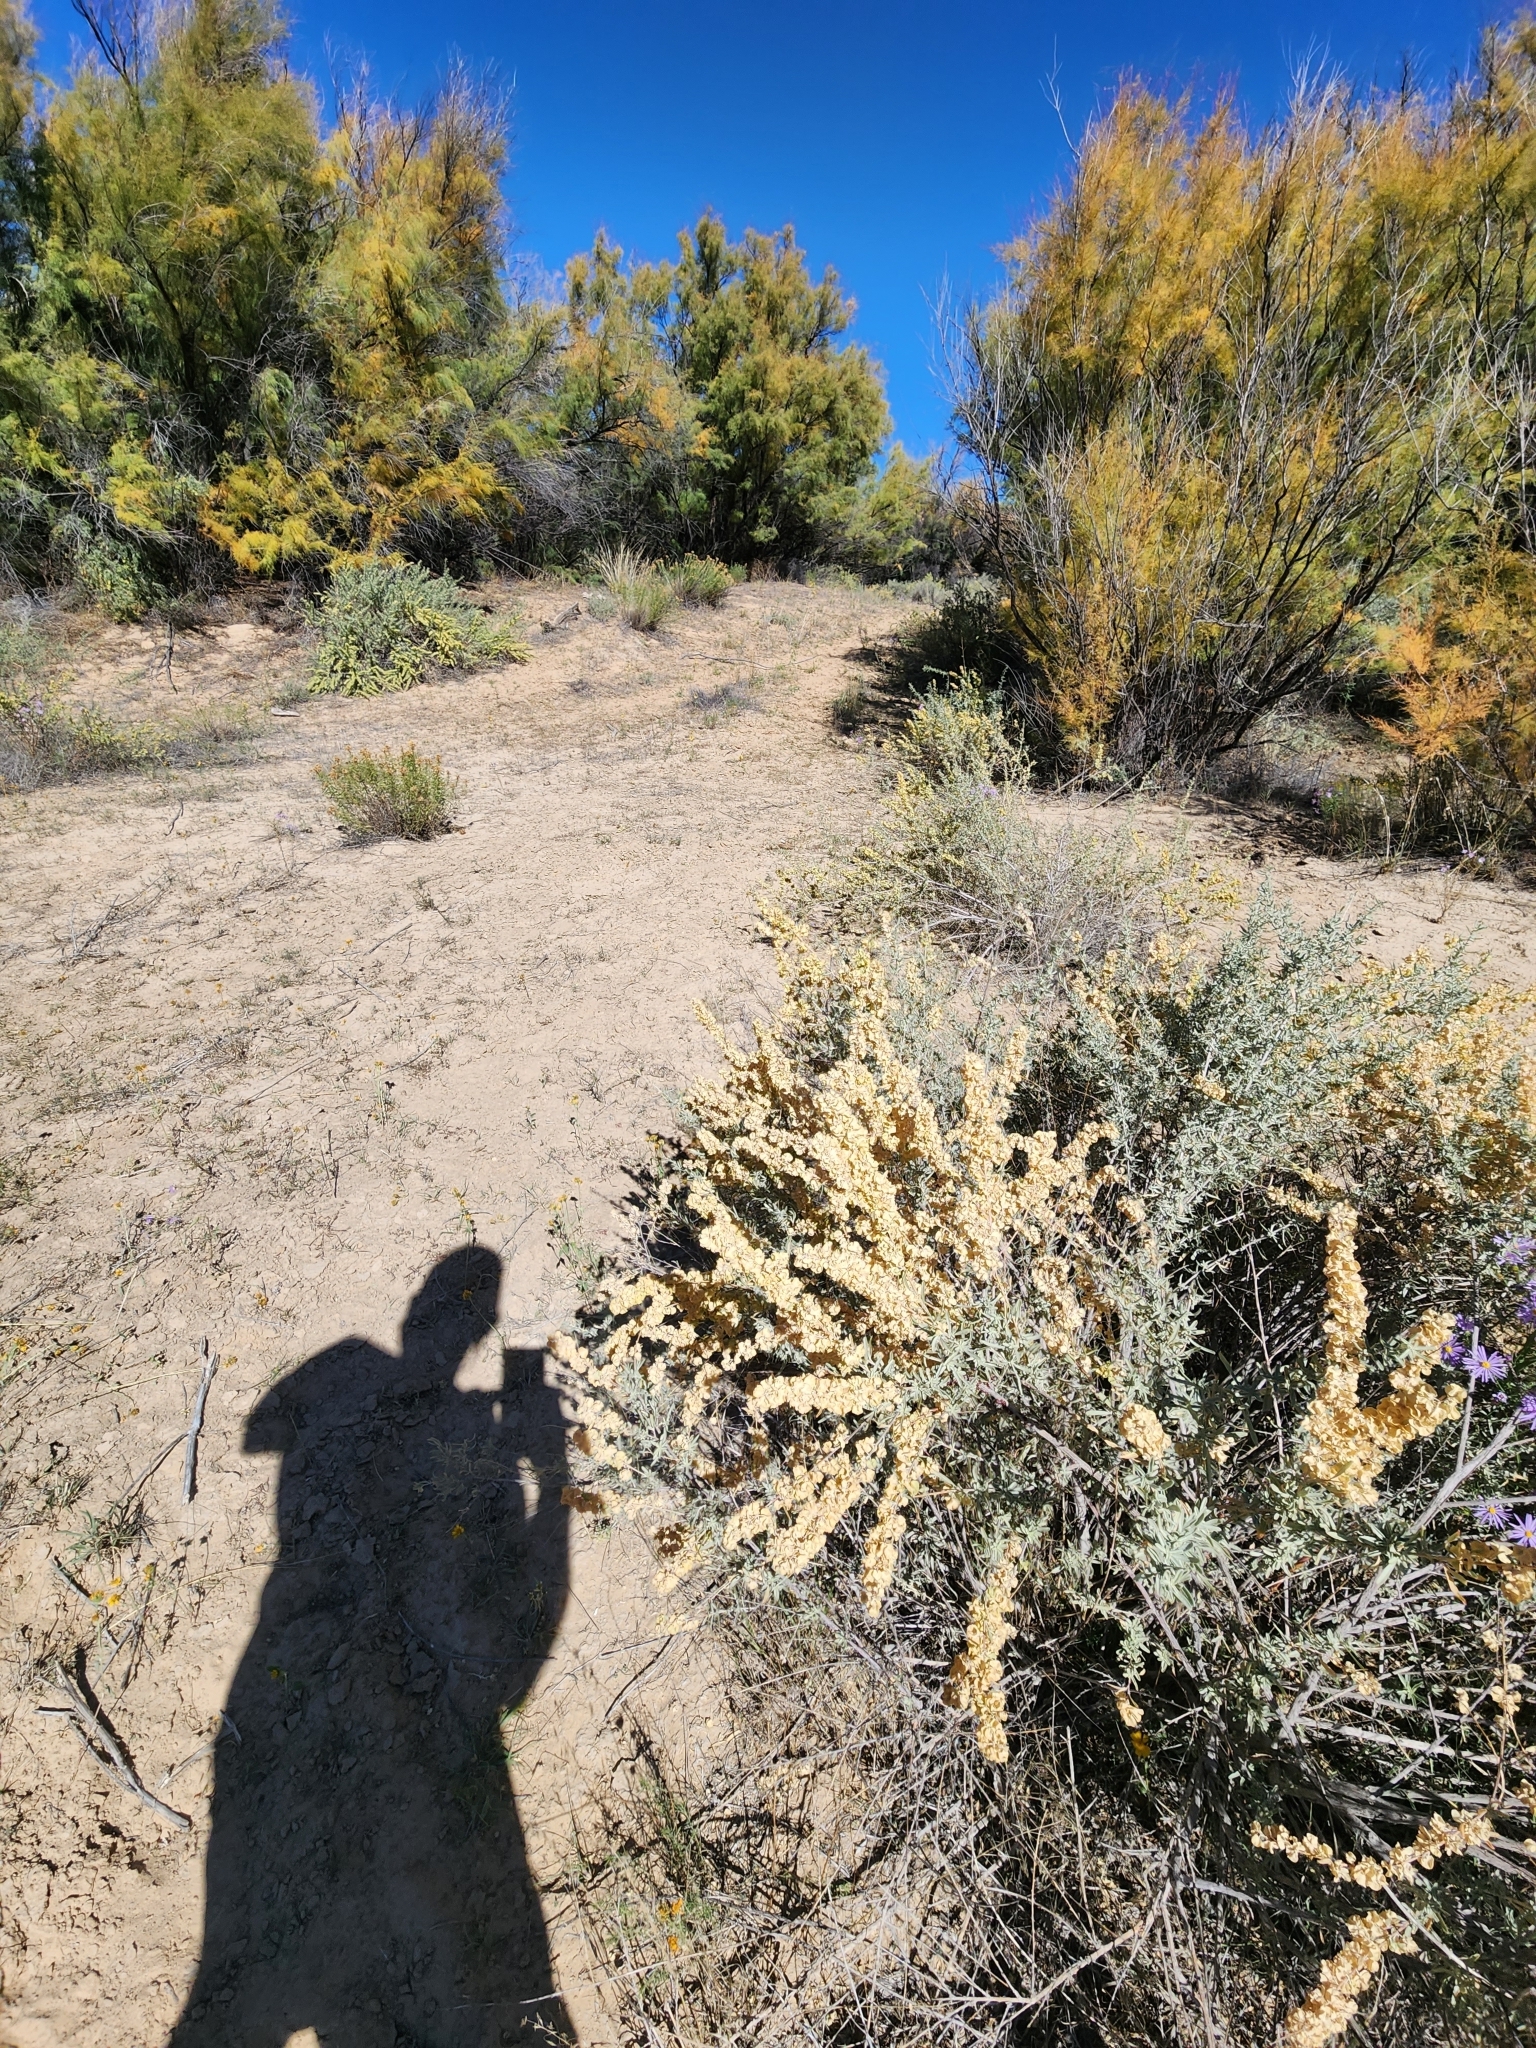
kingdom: Plantae
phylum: Tracheophyta
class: Magnoliopsida
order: Caryophyllales
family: Amaranthaceae
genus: Atriplex
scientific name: Atriplex canescens
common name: Four-wing saltbush
